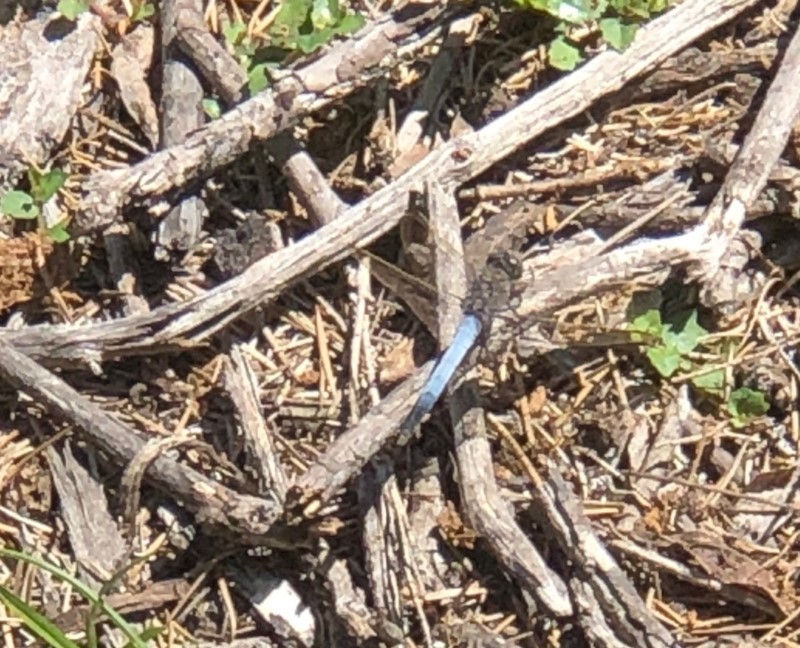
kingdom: Animalia
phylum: Arthropoda
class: Insecta
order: Odonata
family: Libellulidae
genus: Orthetrum
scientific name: Orthetrum caledonicum
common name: Blue skimmer
